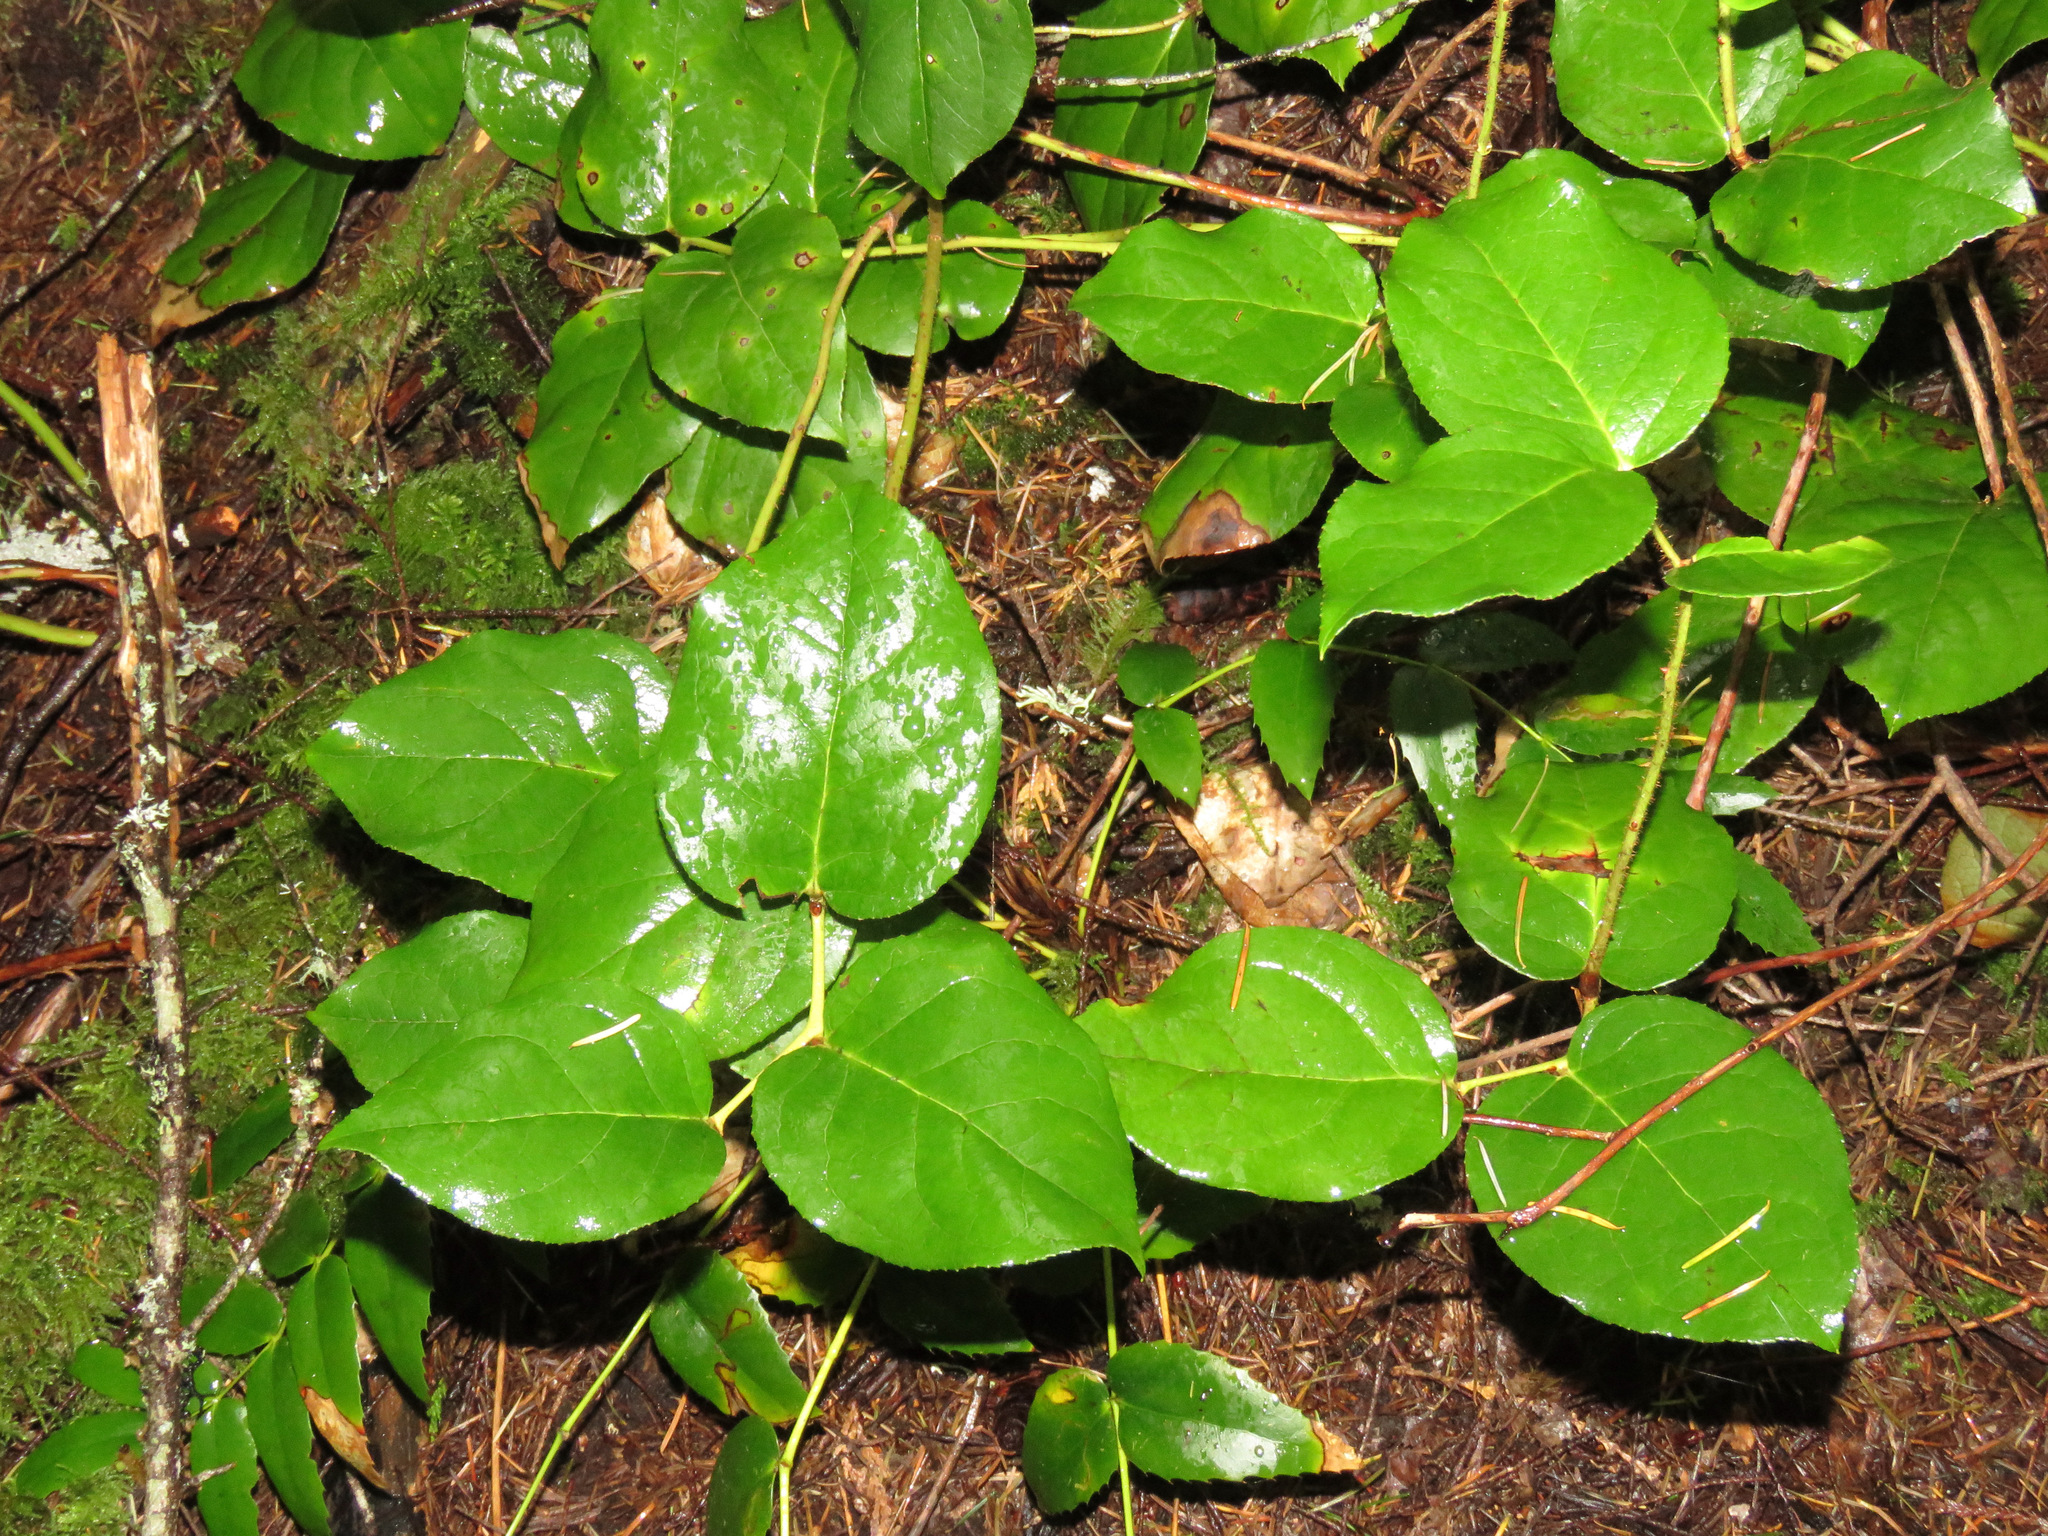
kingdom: Plantae
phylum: Tracheophyta
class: Magnoliopsida
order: Ericales
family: Ericaceae
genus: Gaultheria
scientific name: Gaultheria shallon
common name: Shallon
